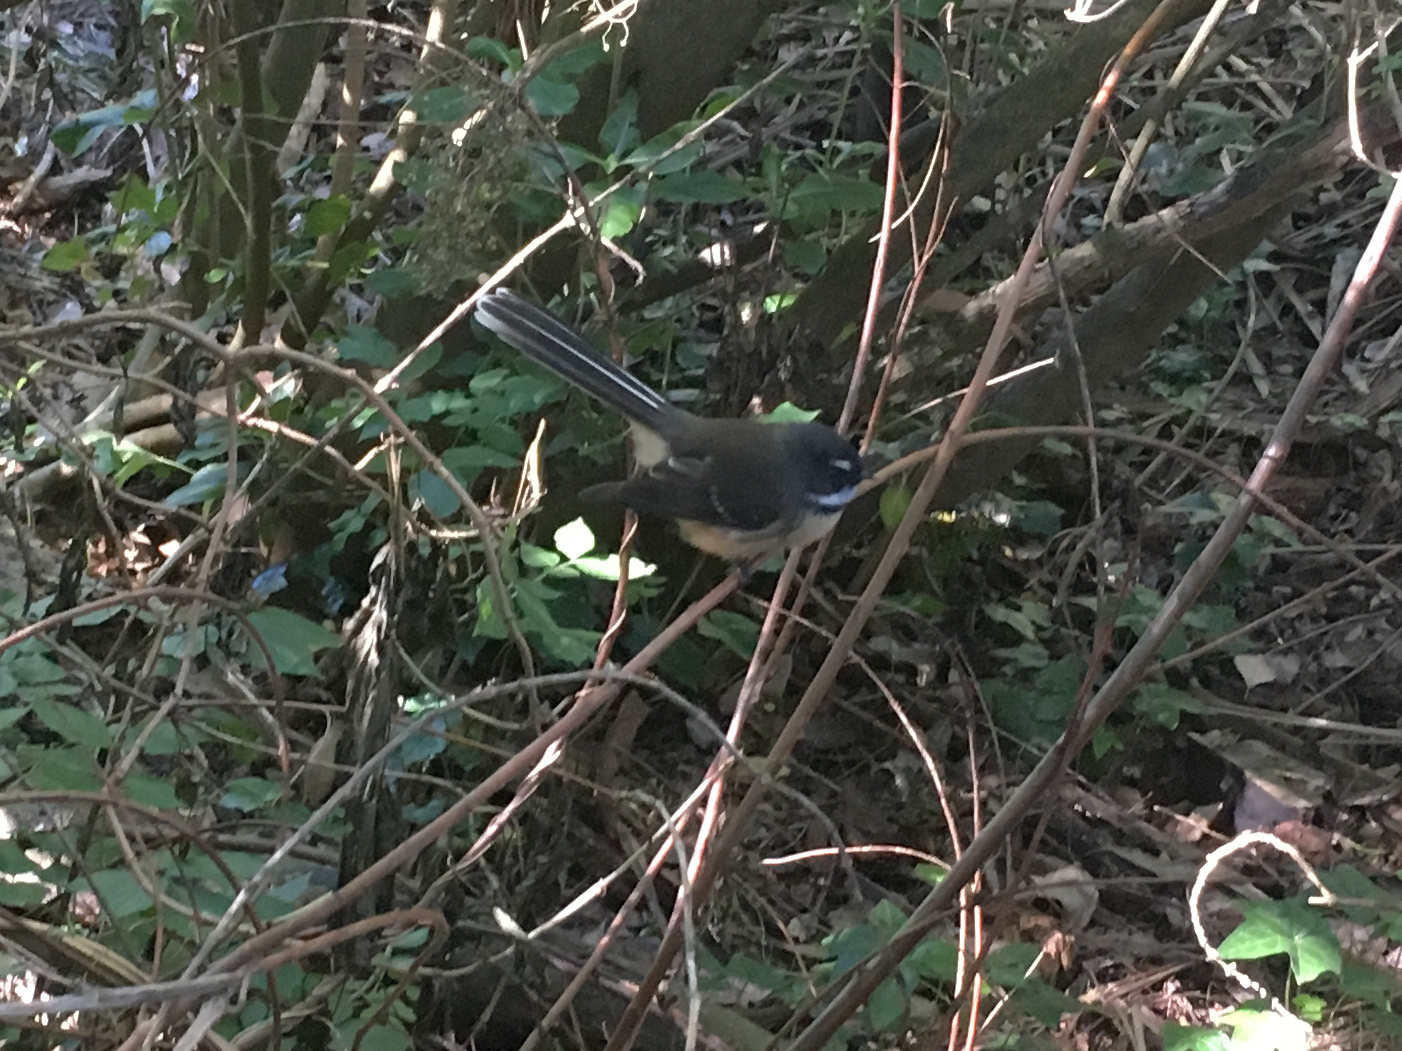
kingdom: Animalia
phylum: Chordata
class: Aves
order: Passeriformes
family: Rhipiduridae
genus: Rhipidura
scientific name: Rhipidura fuliginosa
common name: New zealand fantail
